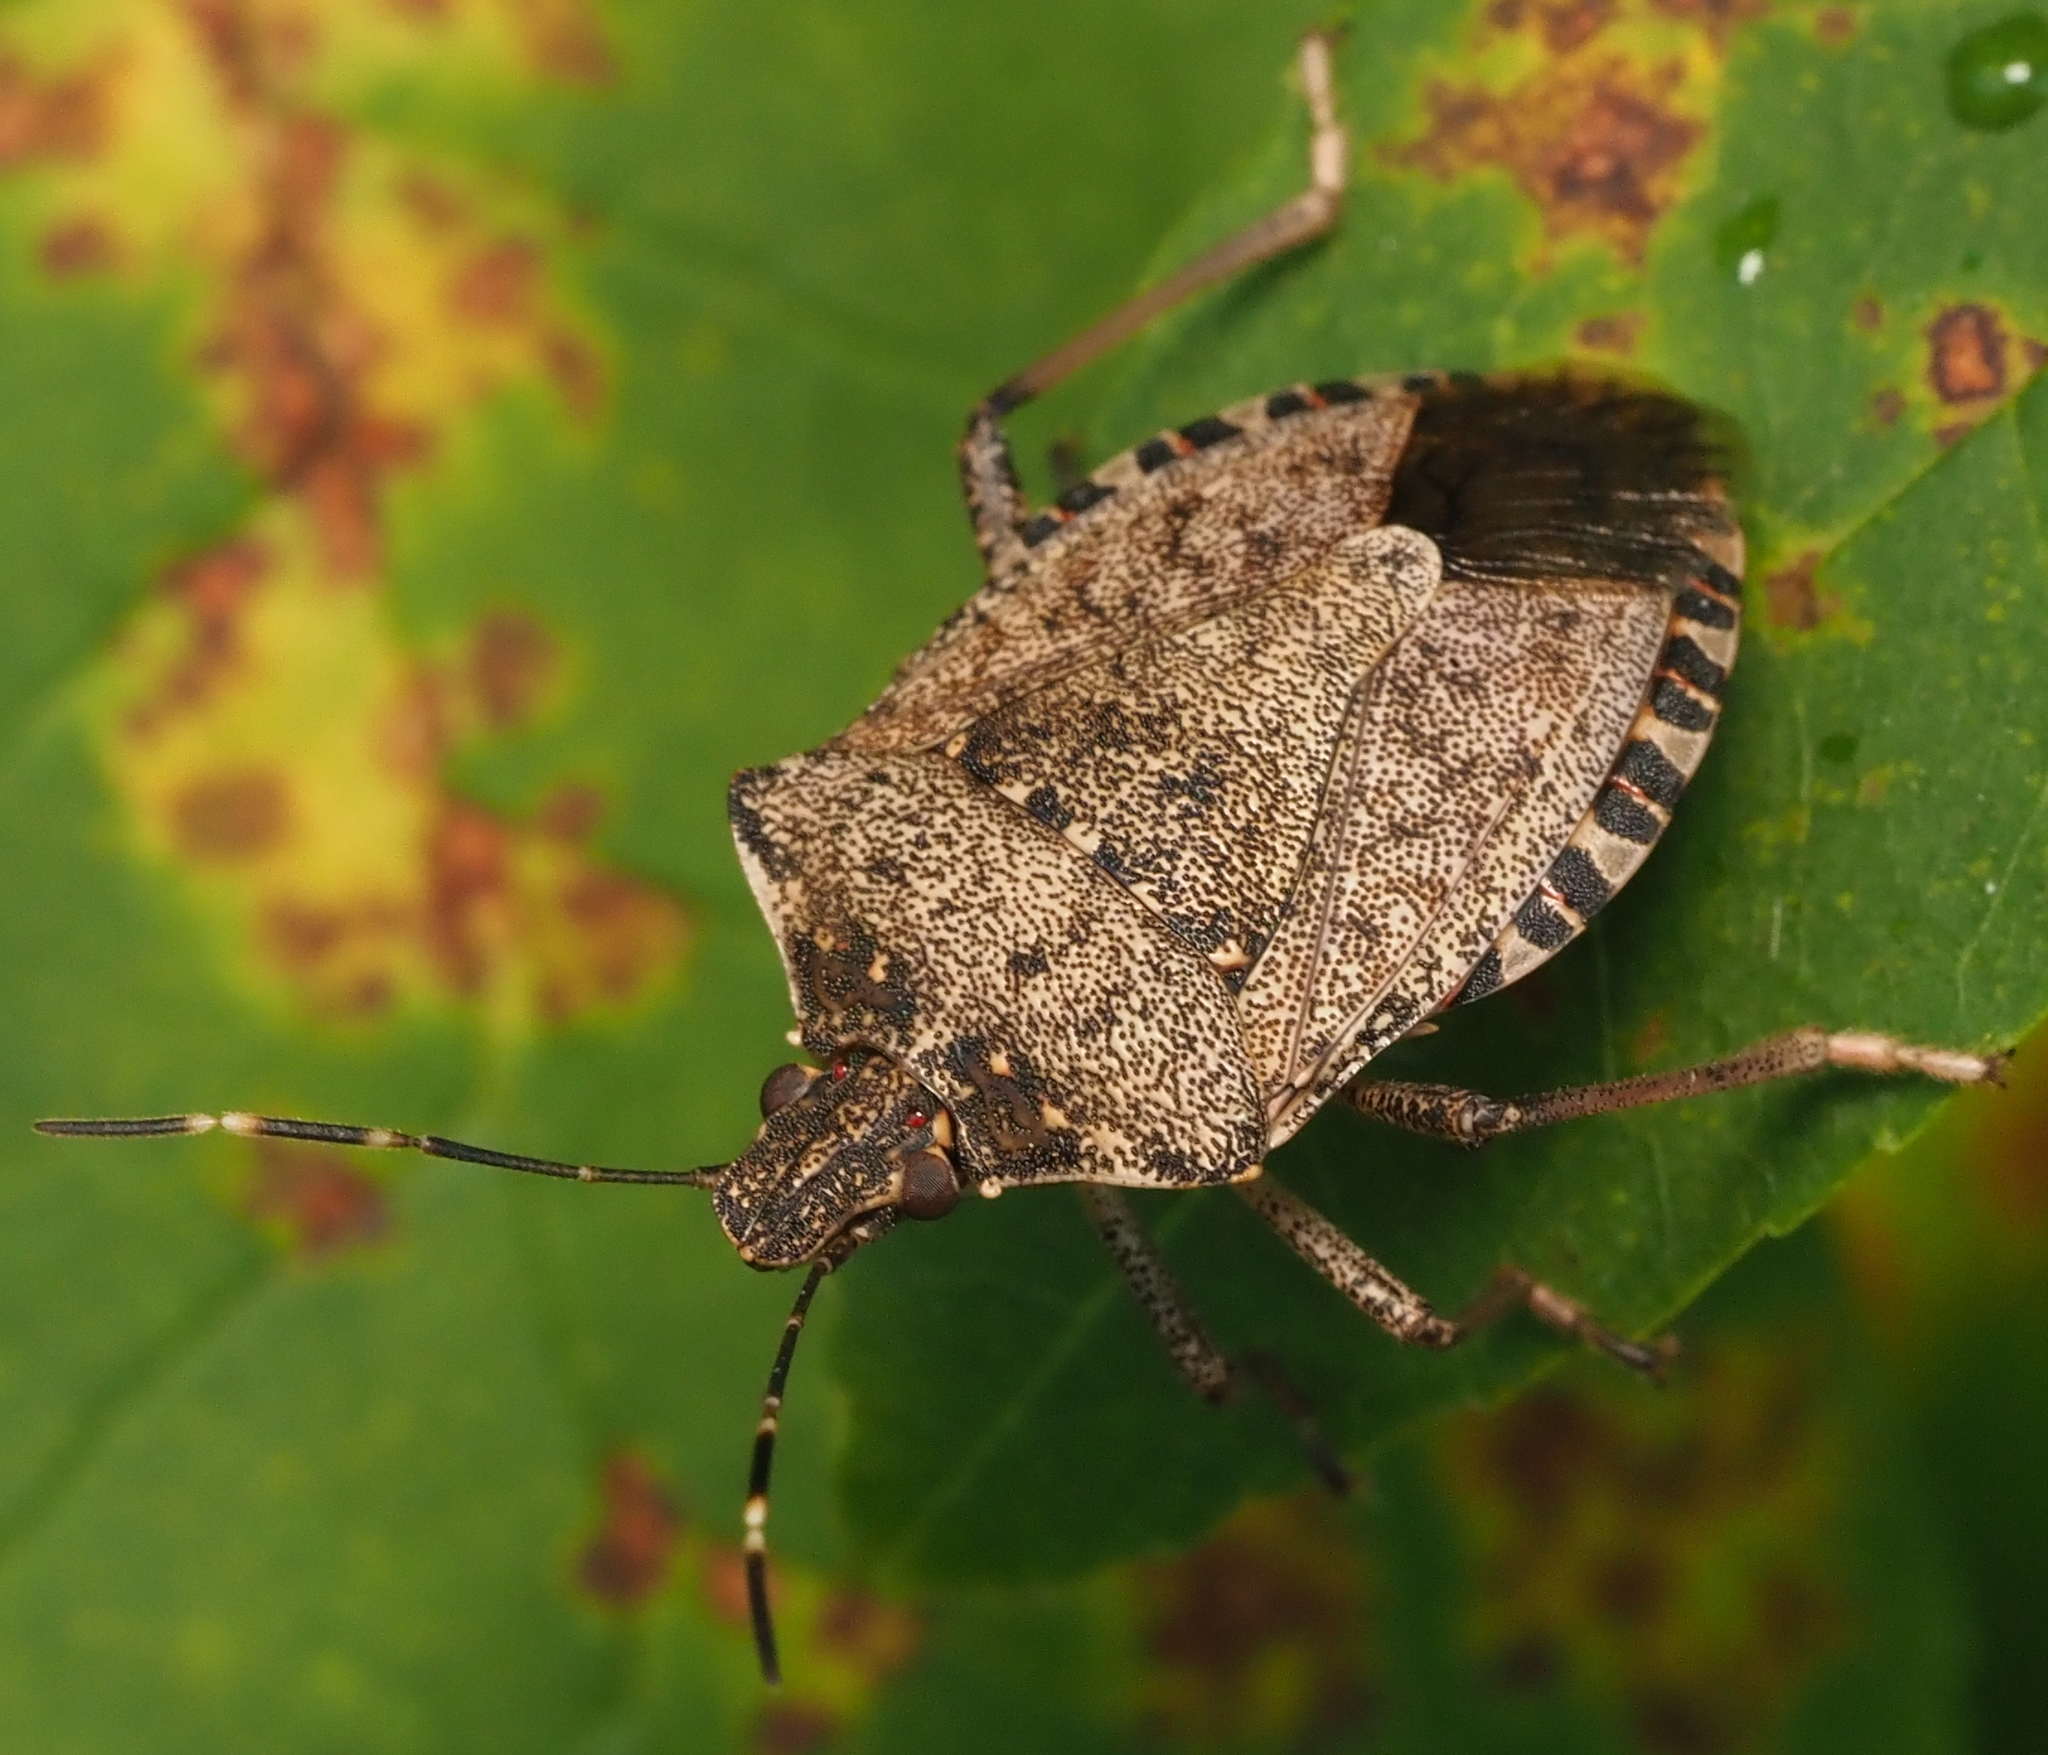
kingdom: Animalia
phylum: Arthropoda
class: Insecta
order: Hemiptera
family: Pentatomidae
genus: Halyomorpha
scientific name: Halyomorpha halys
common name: Brown marmorated stink bug
